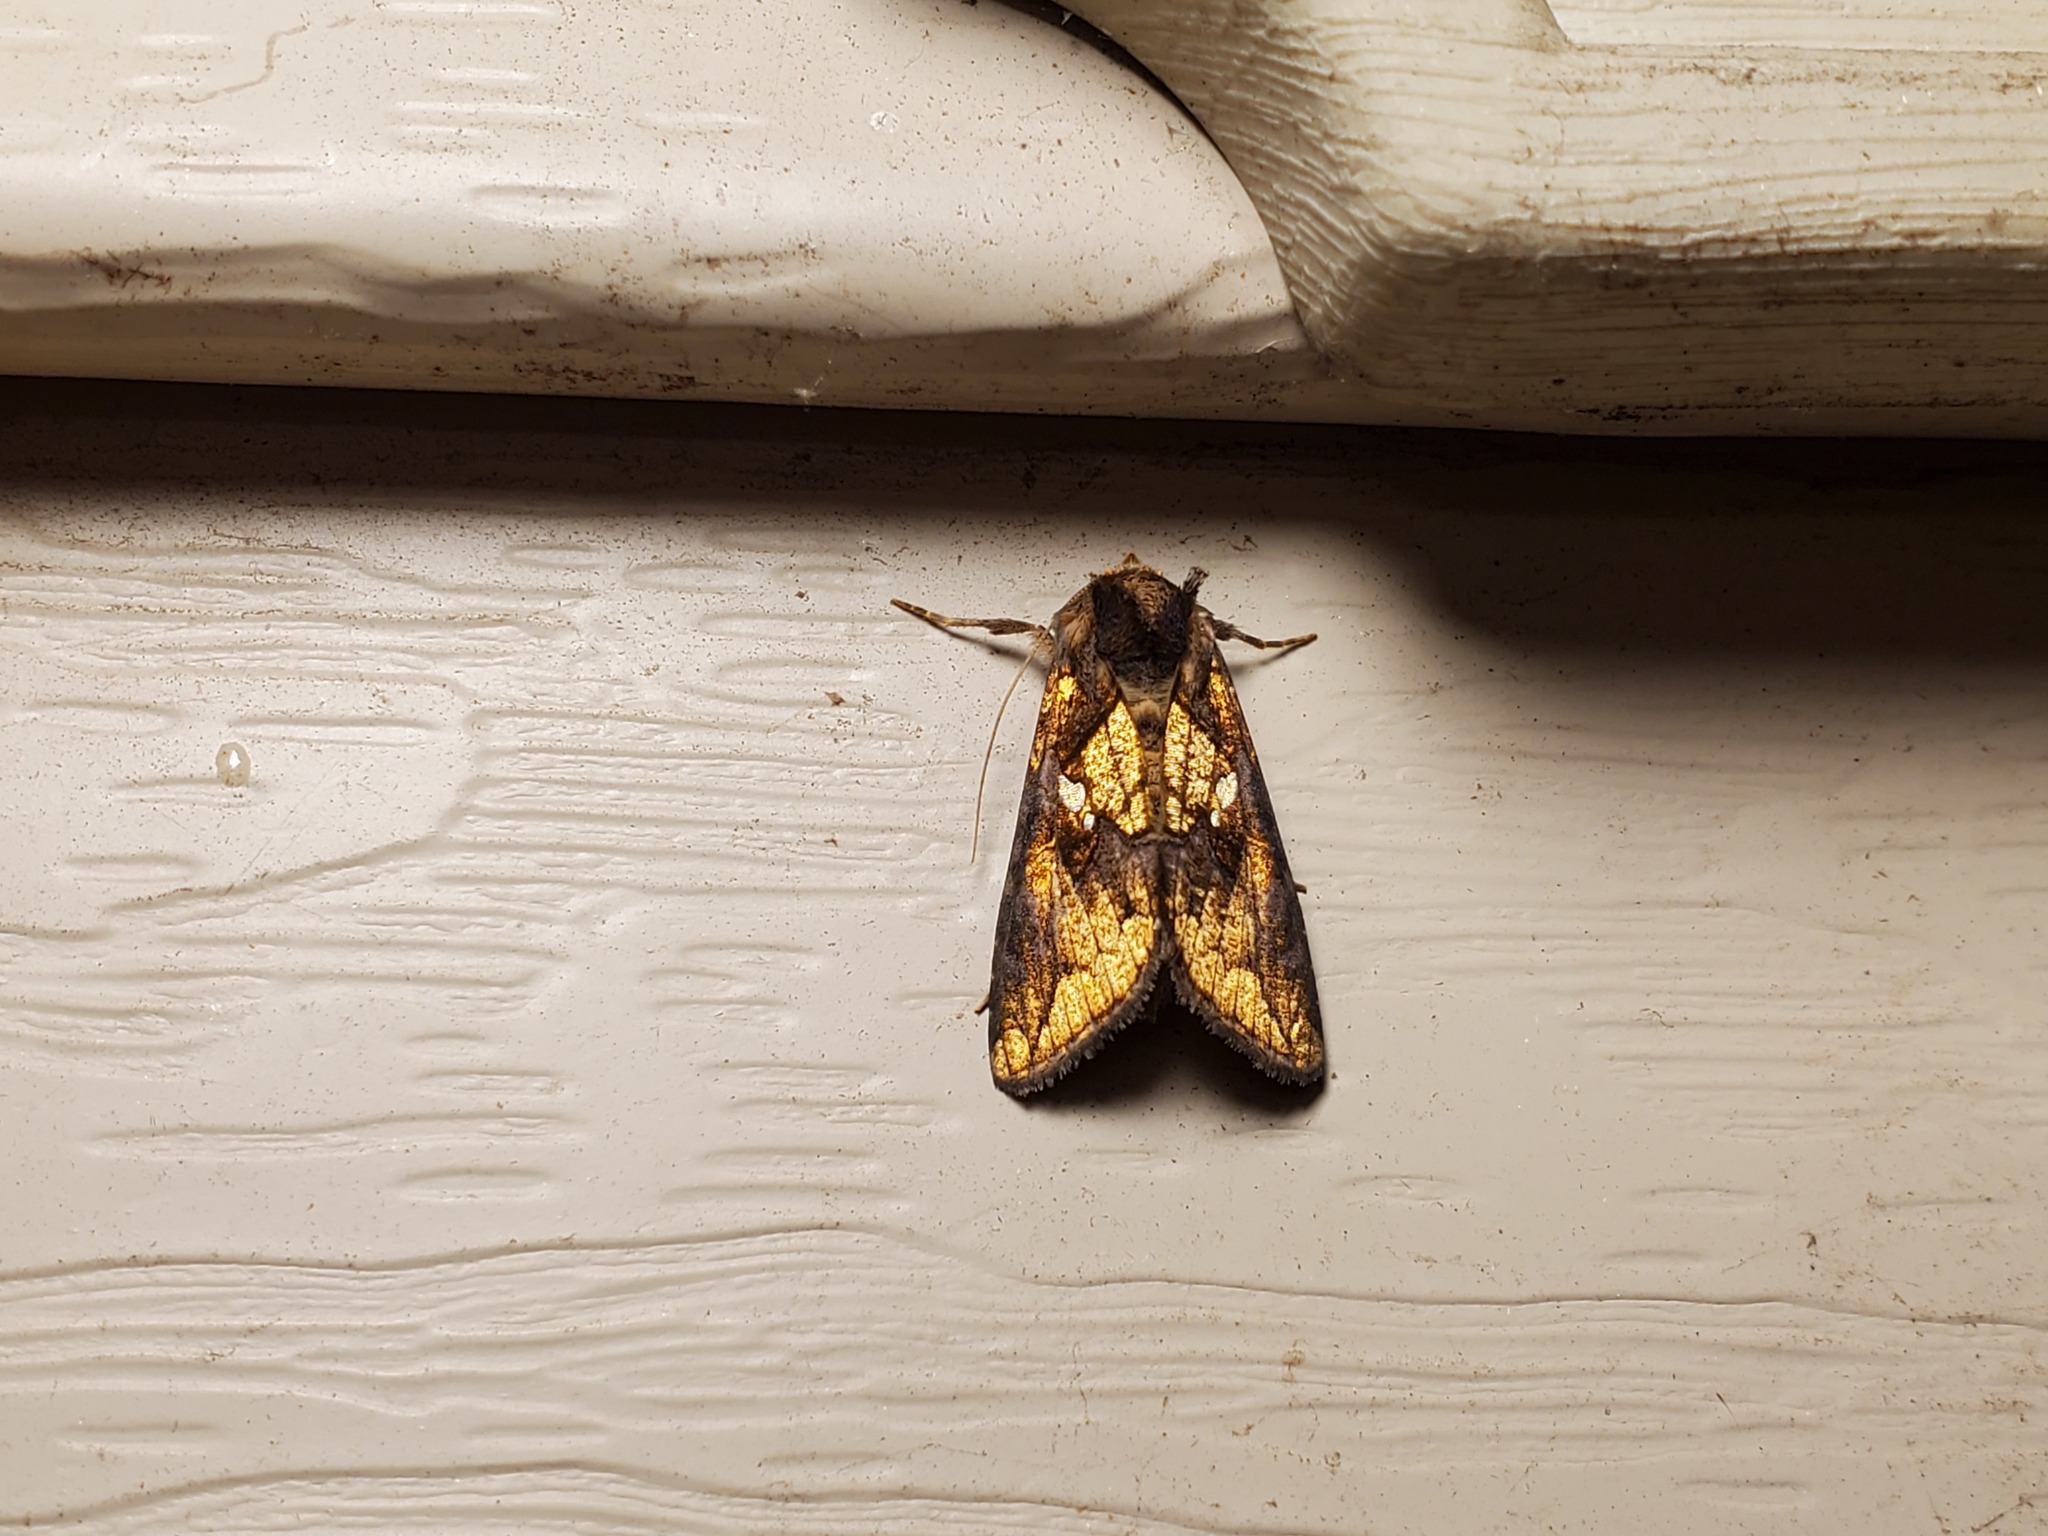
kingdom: Animalia
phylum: Arthropoda
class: Insecta
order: Lepidoptera
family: Noctuidae
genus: Argyrogramma
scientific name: Argyrogramma verruca
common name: Golden looper moth
